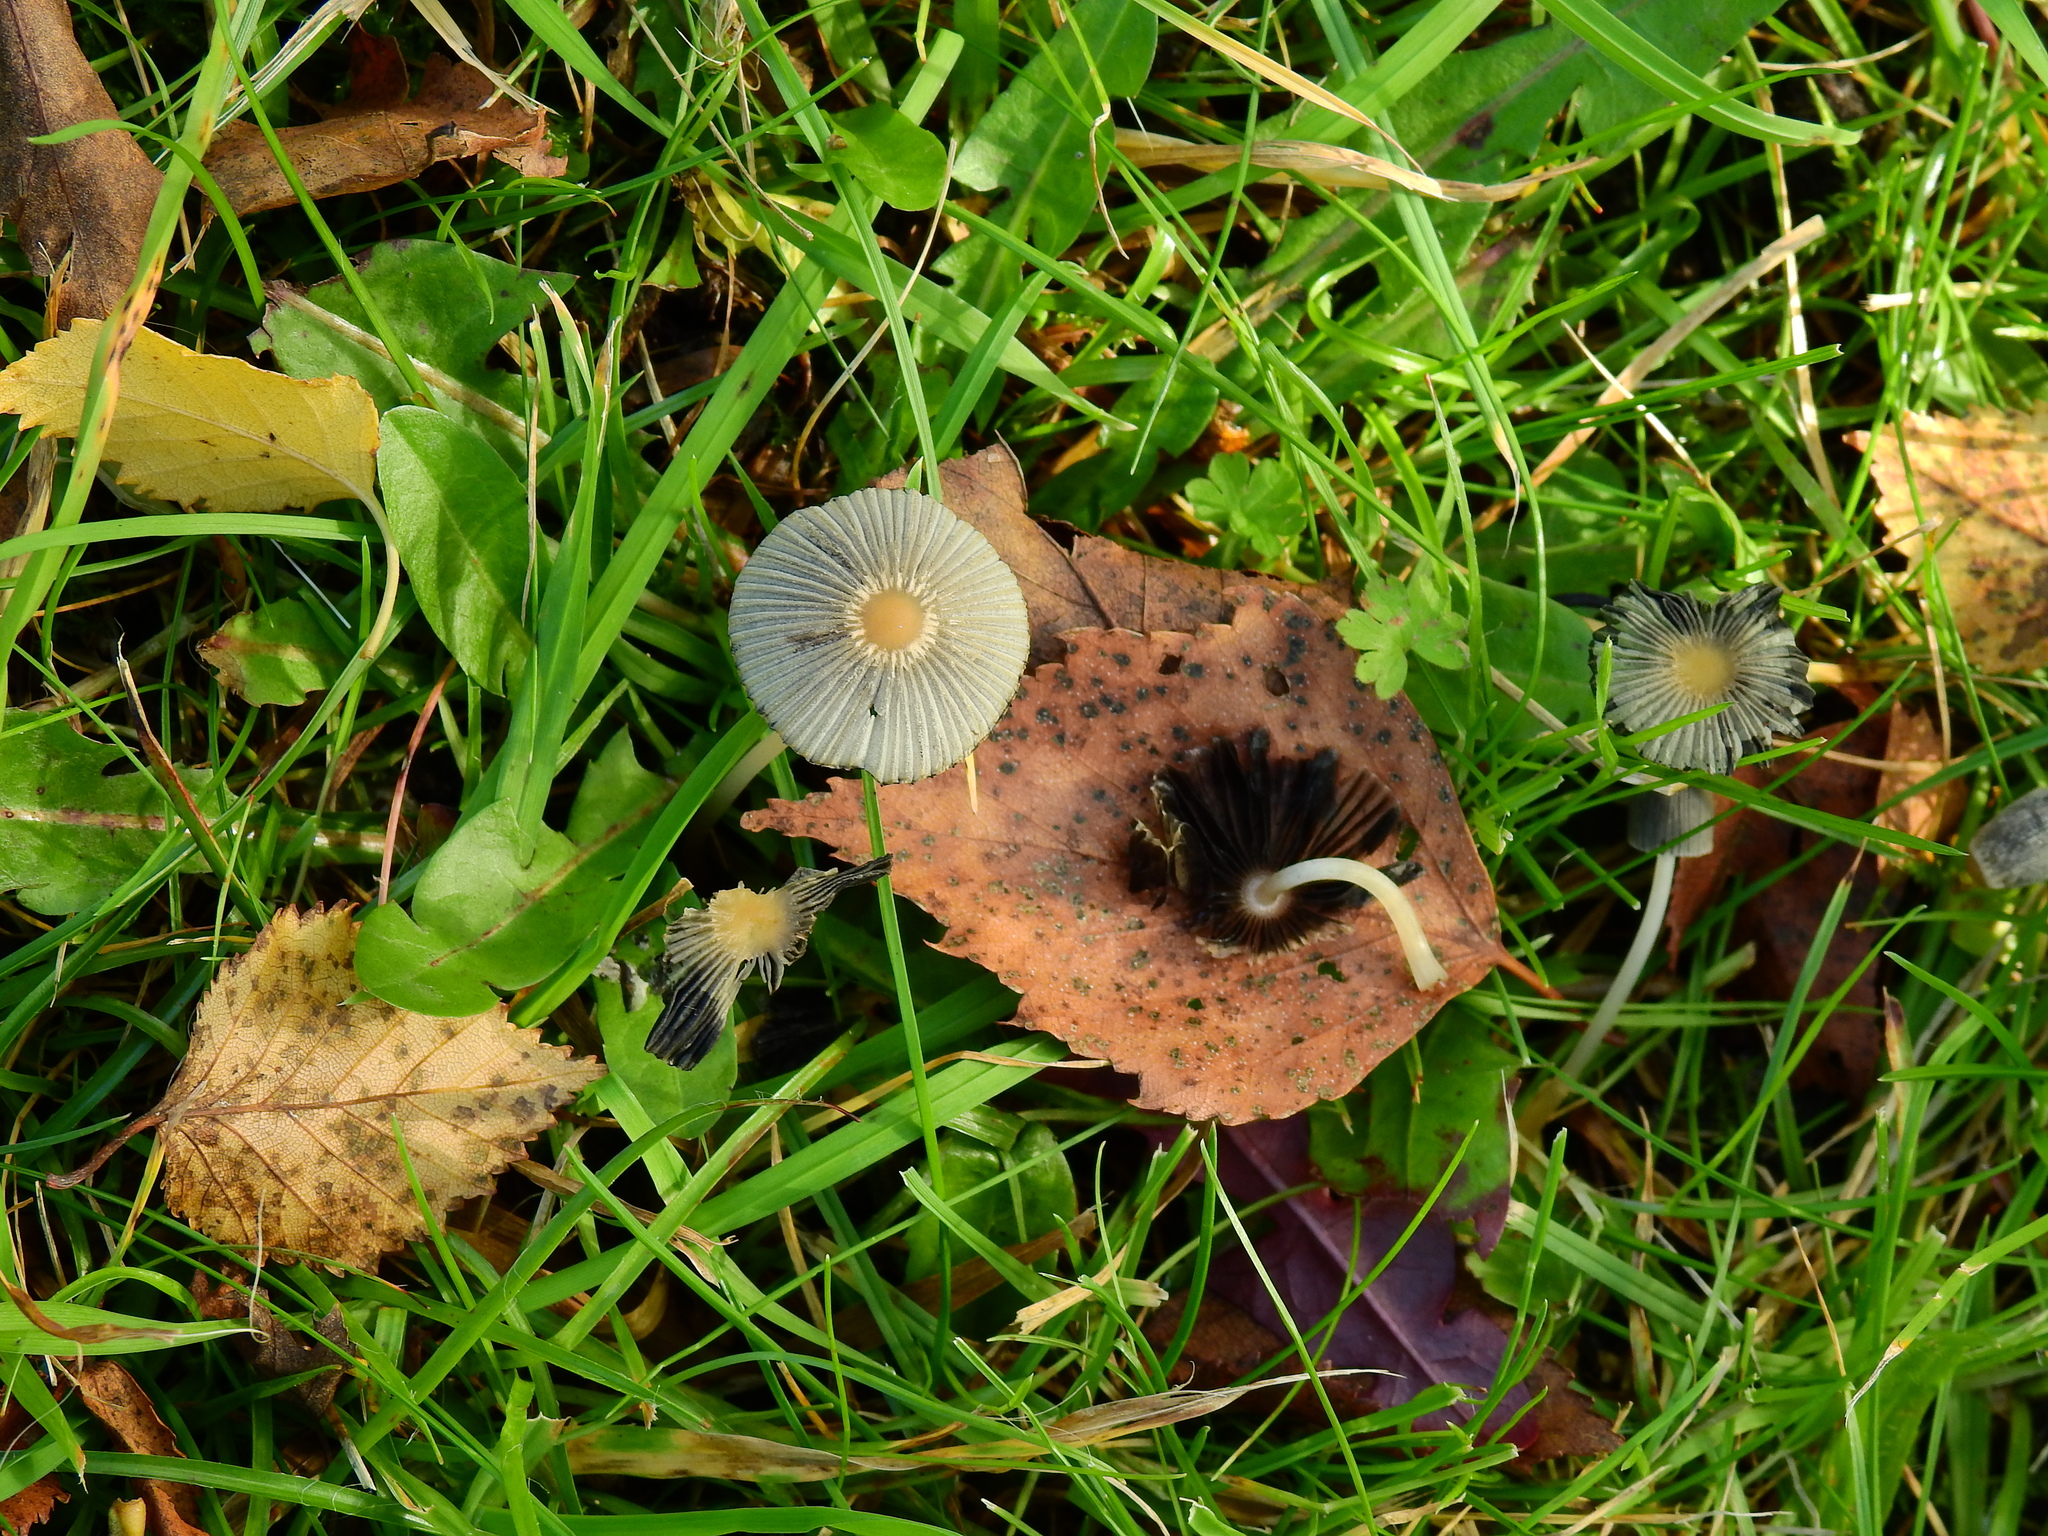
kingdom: Fungi
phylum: Basidiomycota
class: Agaricomycetes
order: Agaricales
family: Psathyrellaceae
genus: Parasola
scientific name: Parasola plicatilis
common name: Pleated inkcap
